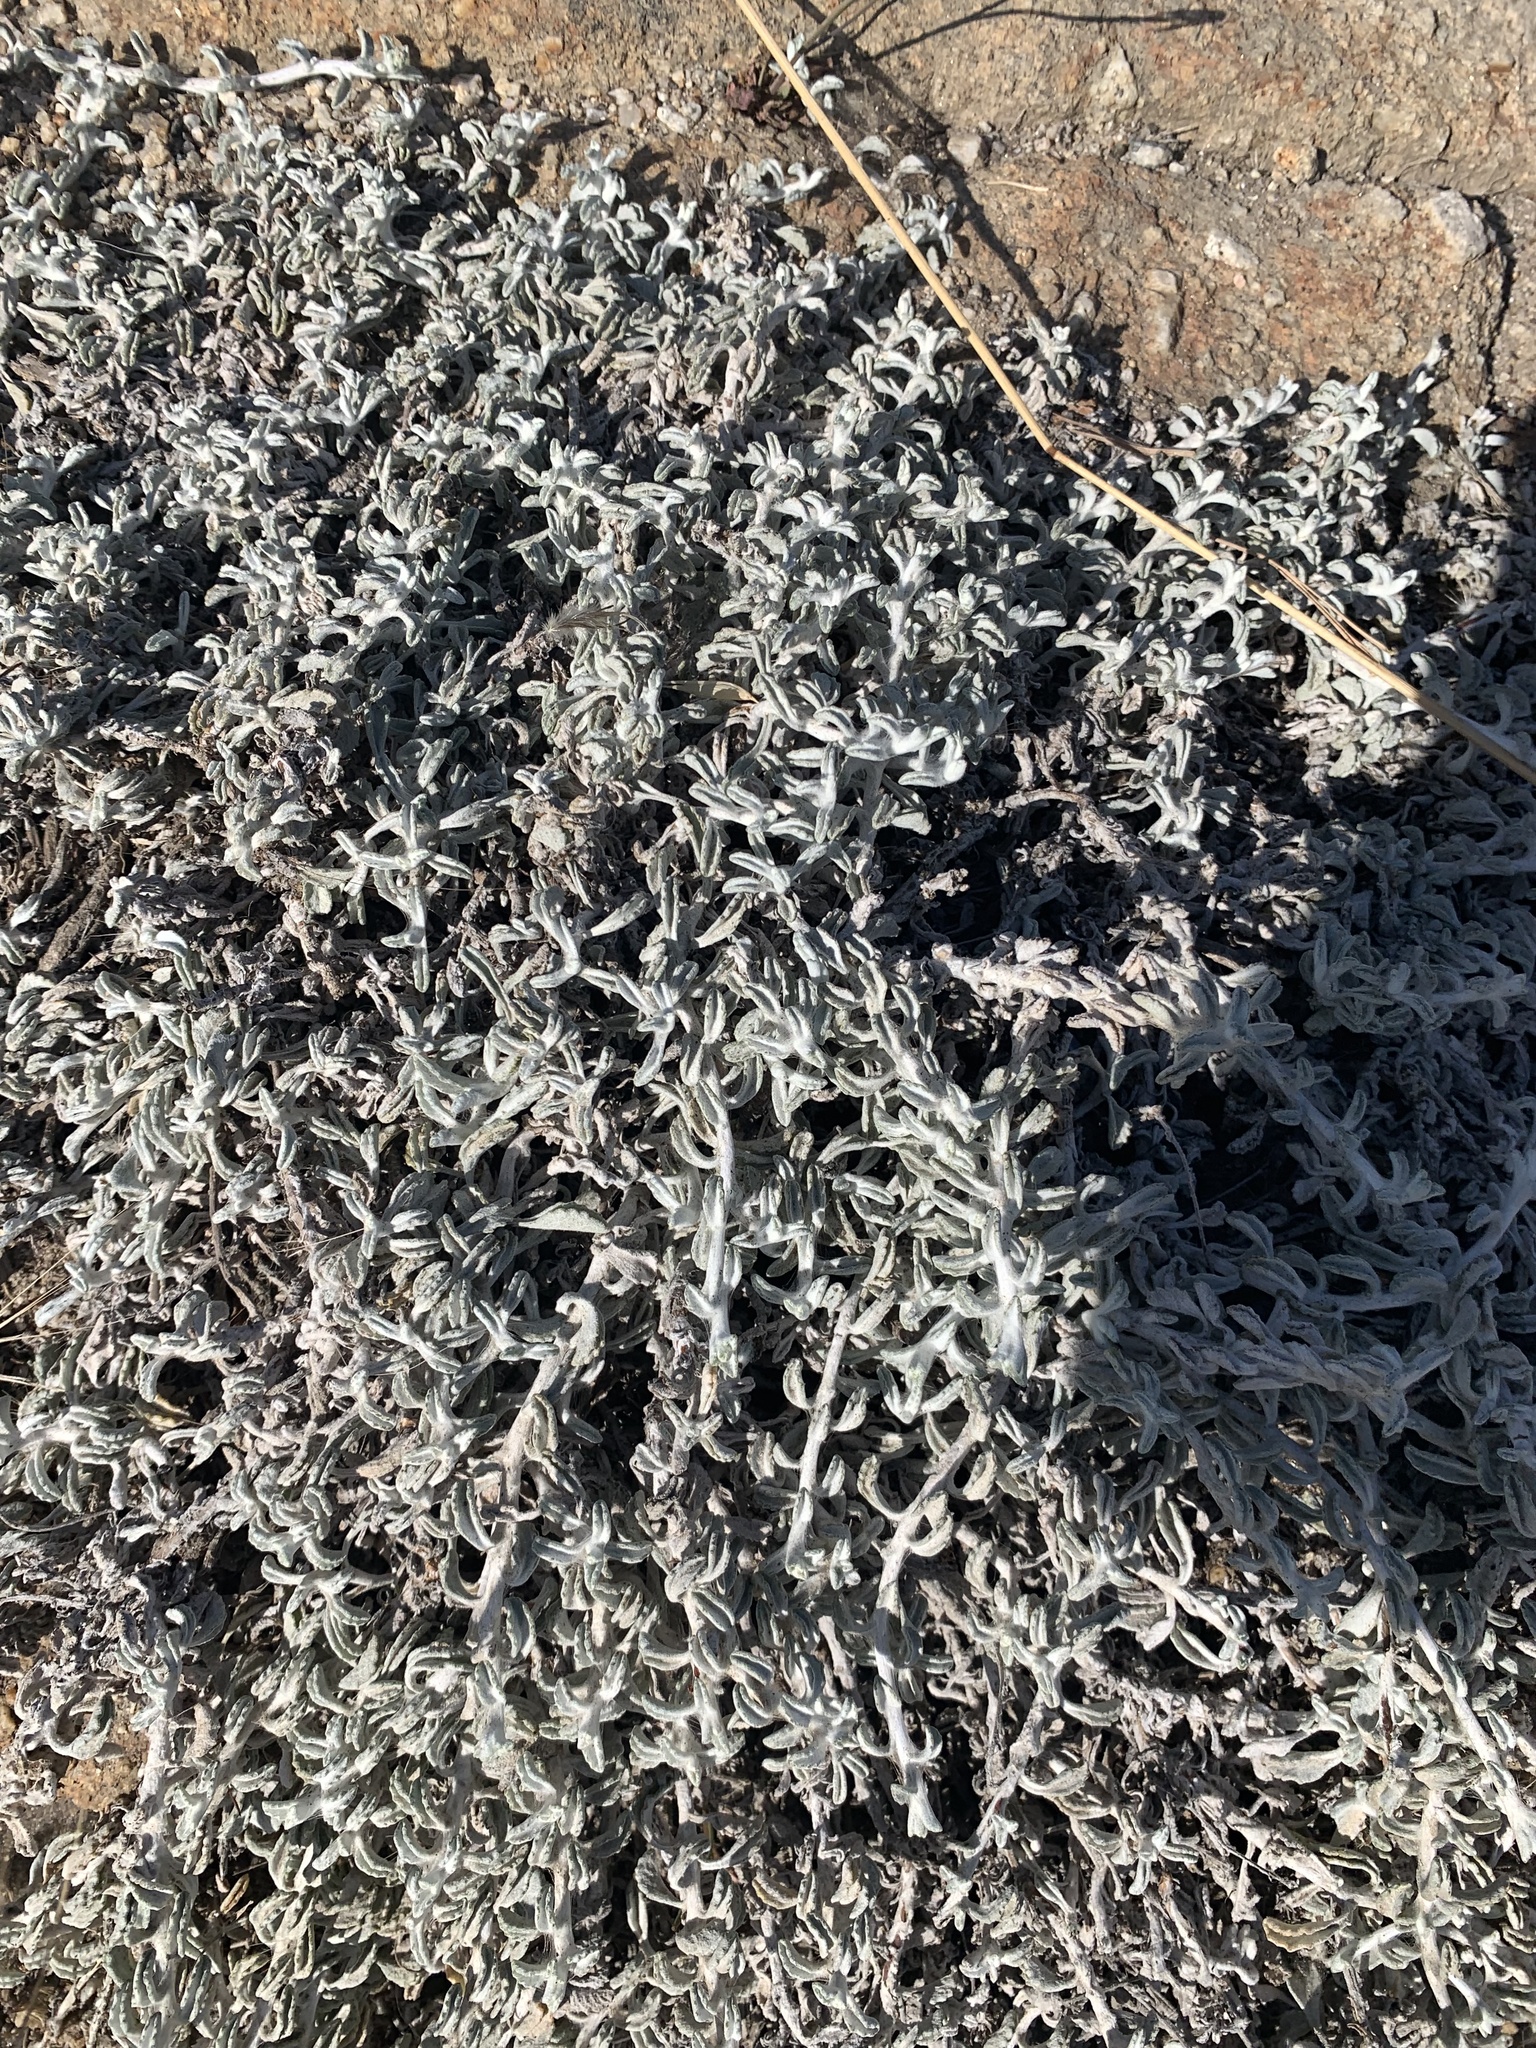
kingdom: Plantae
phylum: Tracheophyta
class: Magnoliopsida
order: Asterales
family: Asteraceae
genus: Corethrogyne
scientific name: Corethrogyne filaginifolia
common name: Sand-aster
